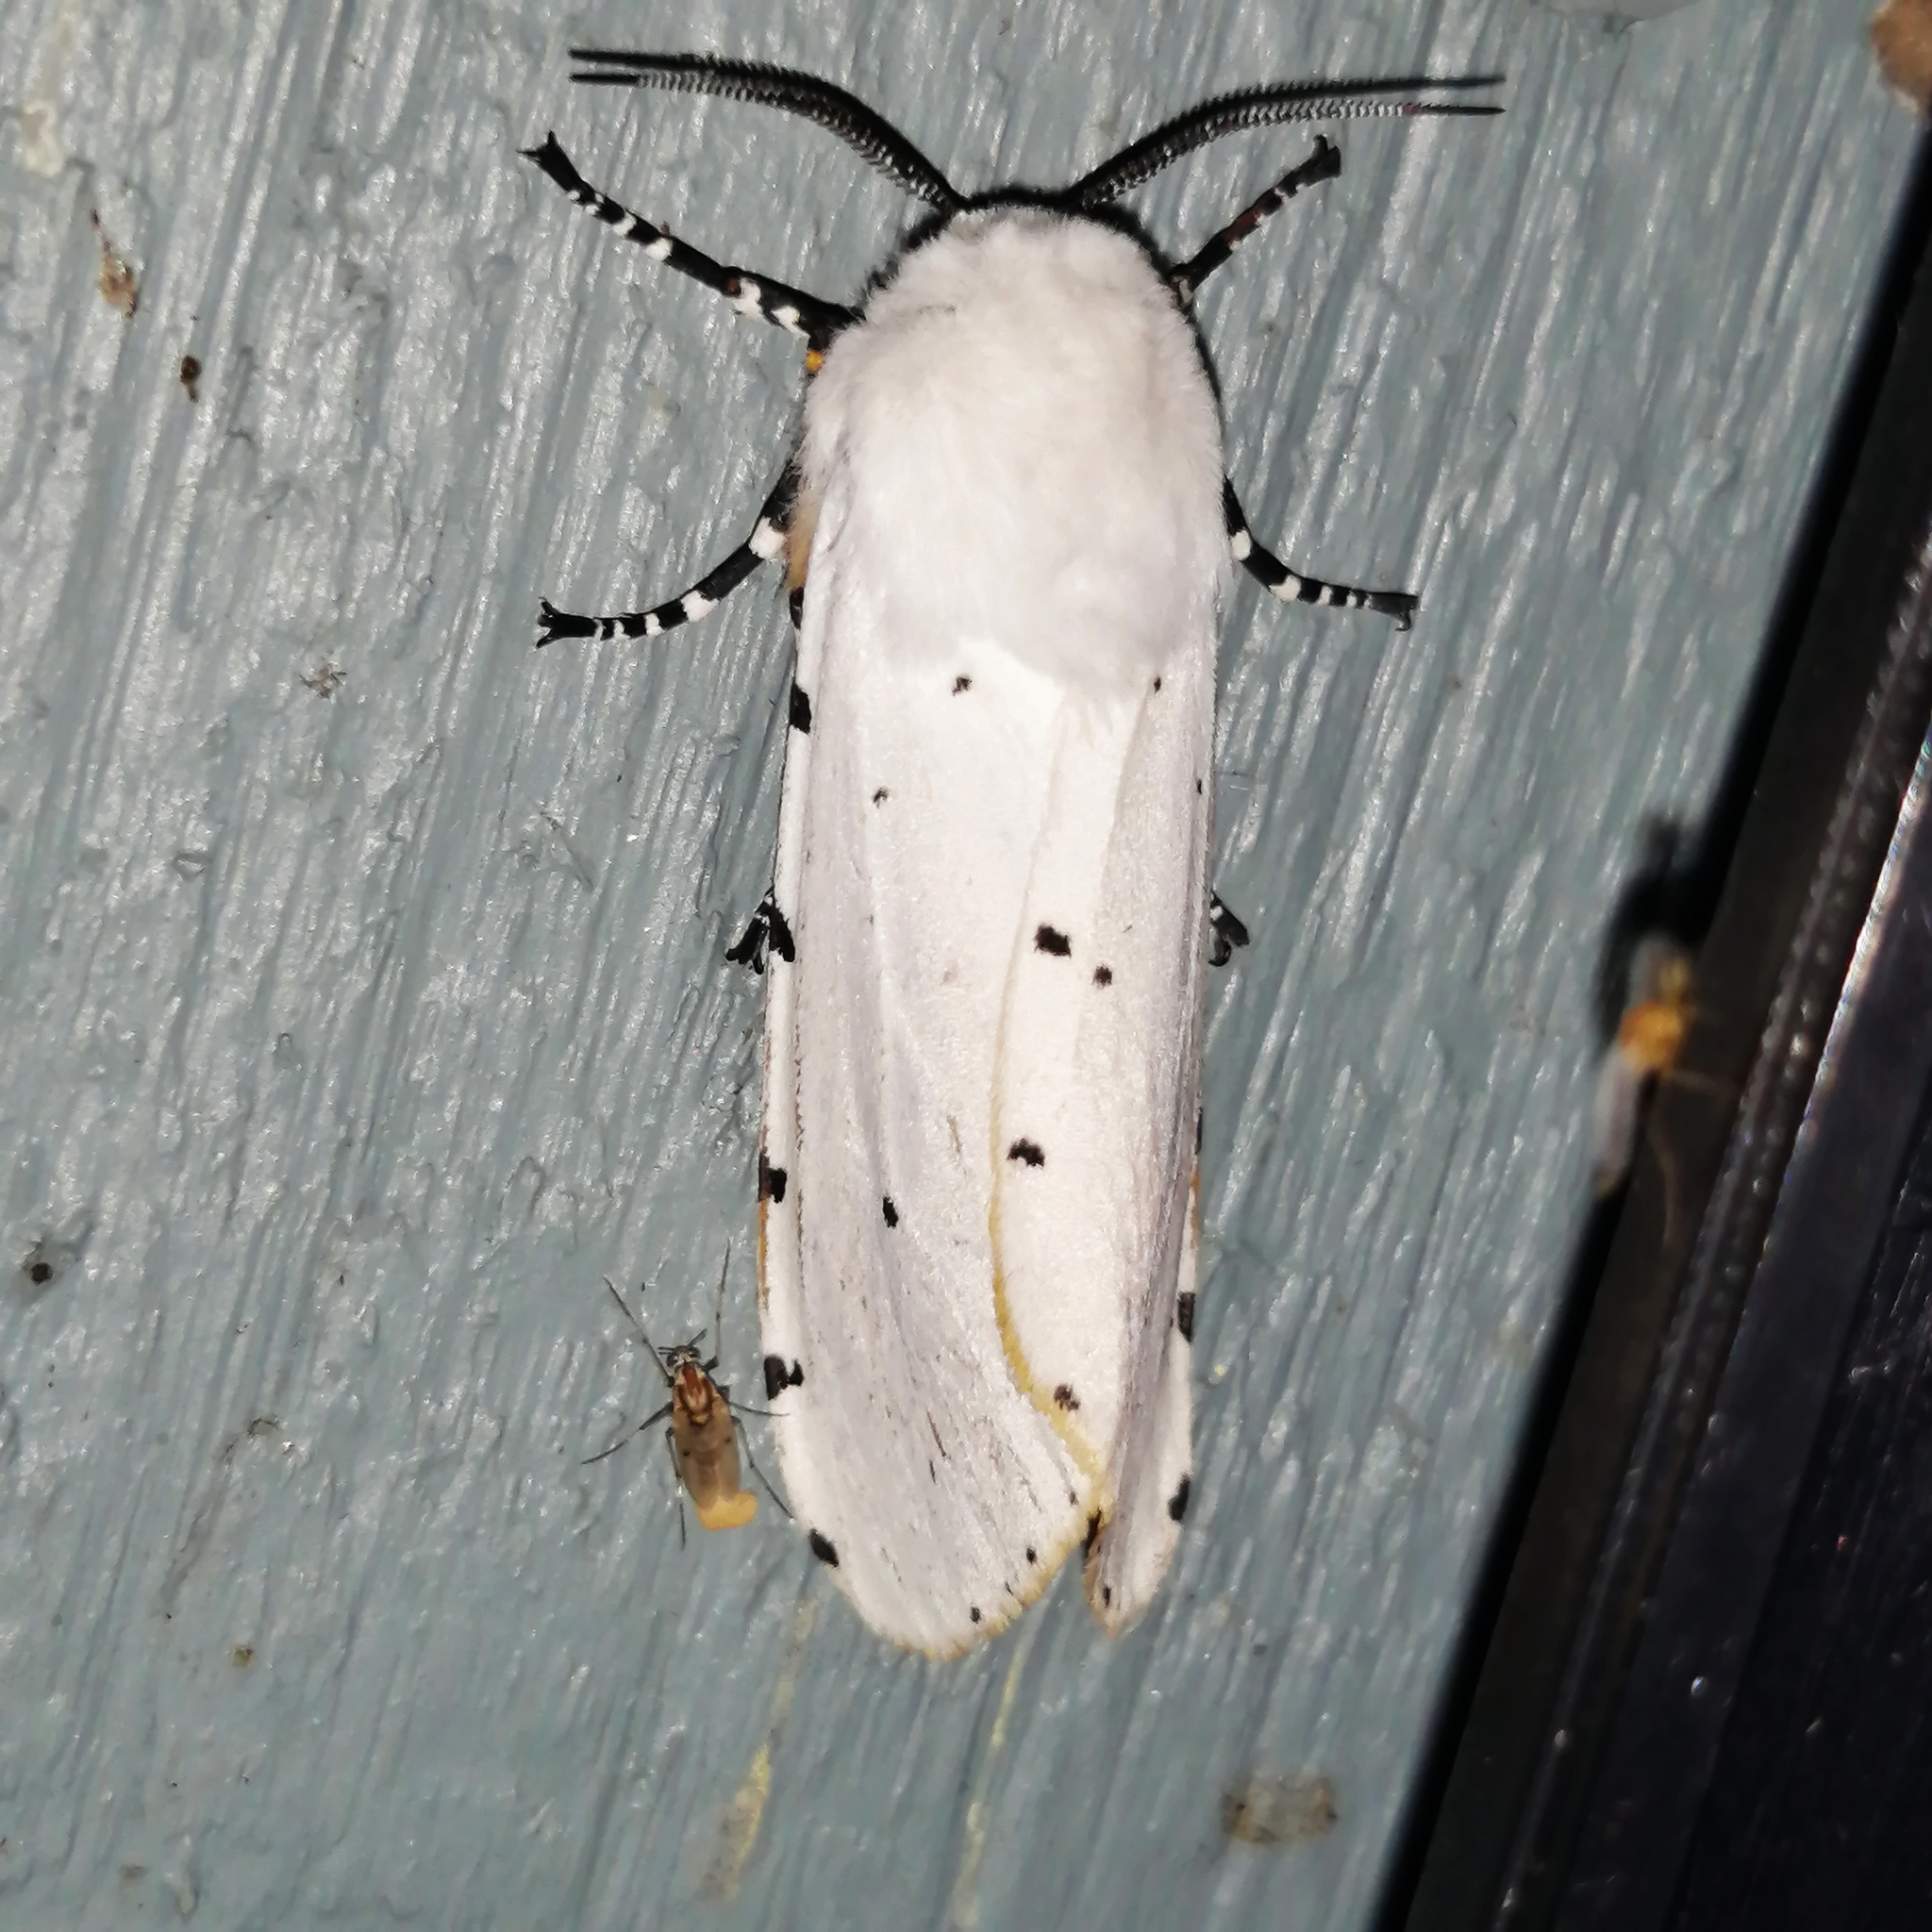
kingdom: Animalia
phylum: Arthropoda
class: Insecta
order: Lepidoptera
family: Erebidae
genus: Estigmene
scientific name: Estigmene acrea
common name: Salt marsh moth
